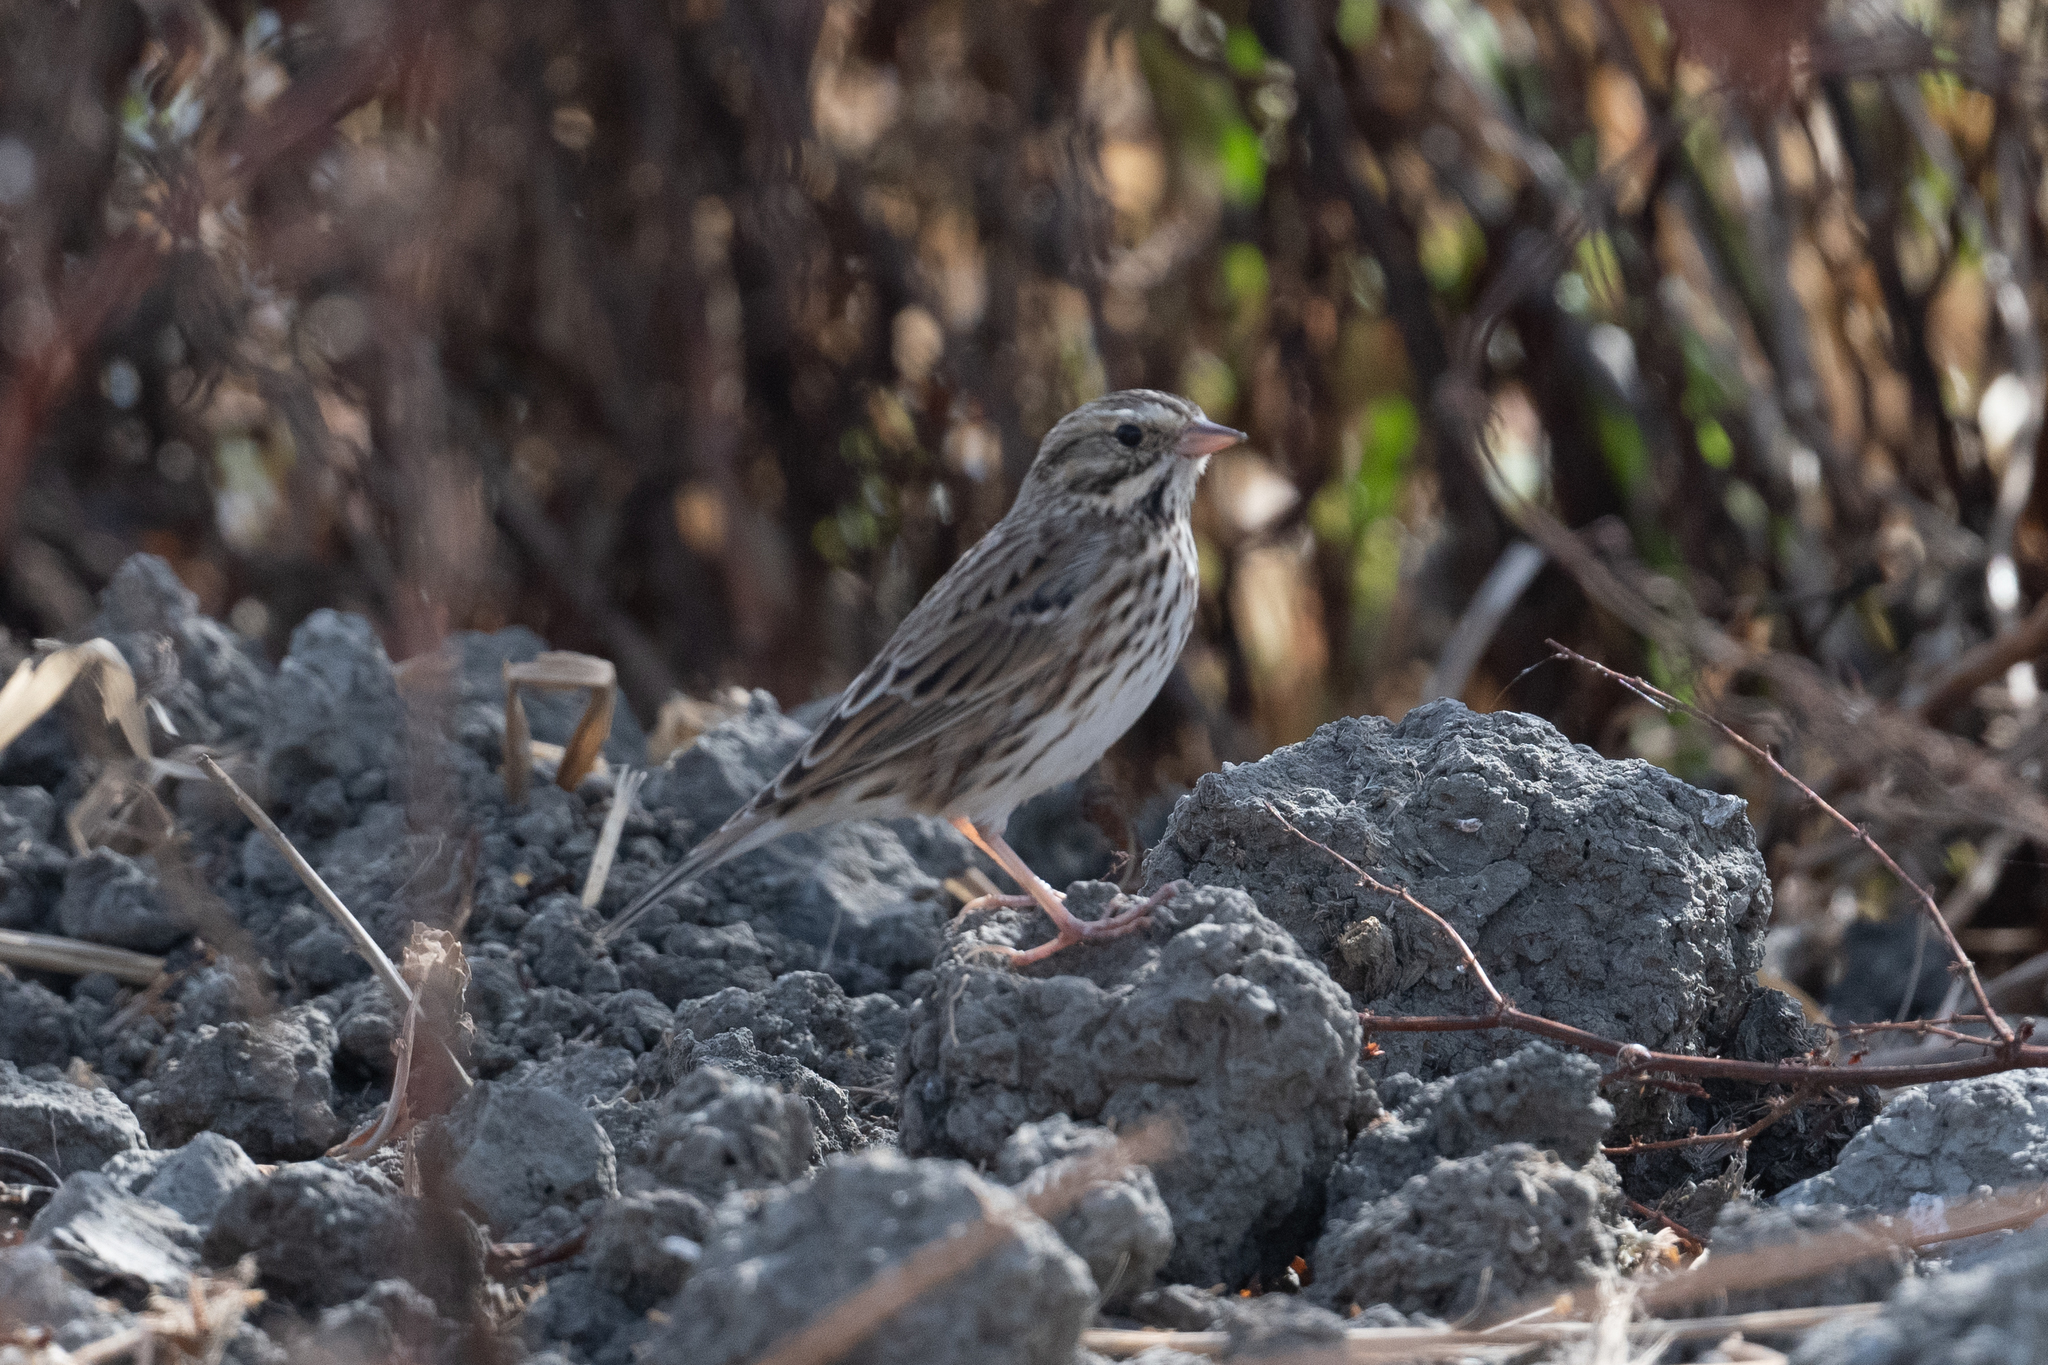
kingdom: Animalia
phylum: Chordata
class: Aves
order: Passeriformes
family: Passerellidae
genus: Passerculus
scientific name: Passerculus sandwichensis
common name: Savannah sparrow
